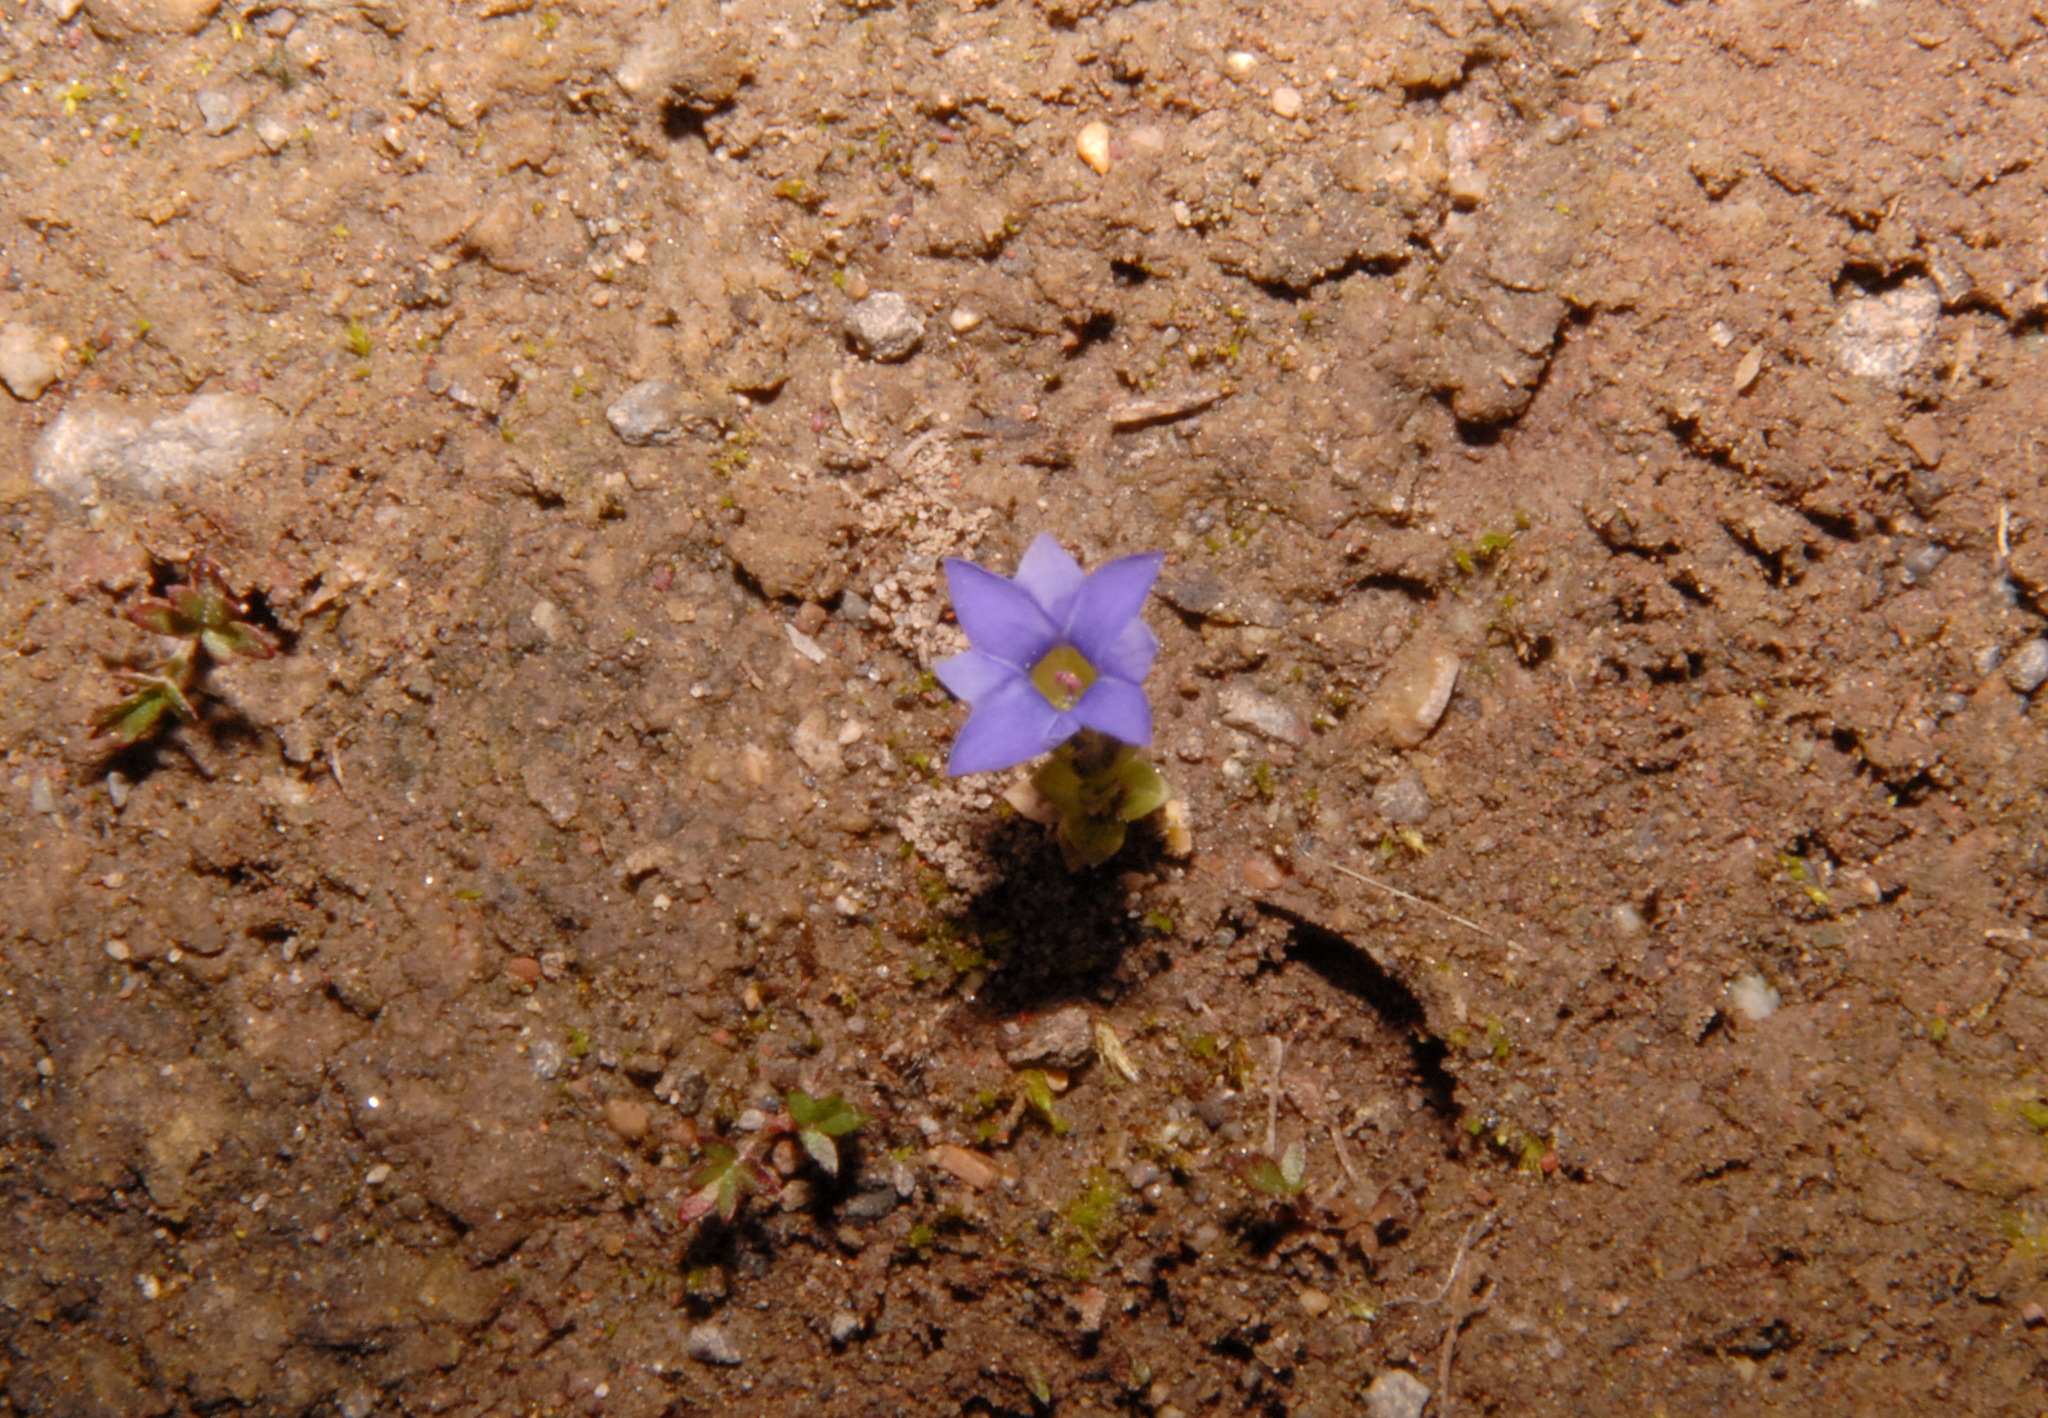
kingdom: Plantae
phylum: Tracheophyta
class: Magnoliopsida
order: Gentianales
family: Gentianaceae
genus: Gentiana
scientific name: Gentiana prostrata
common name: Moss gentian
